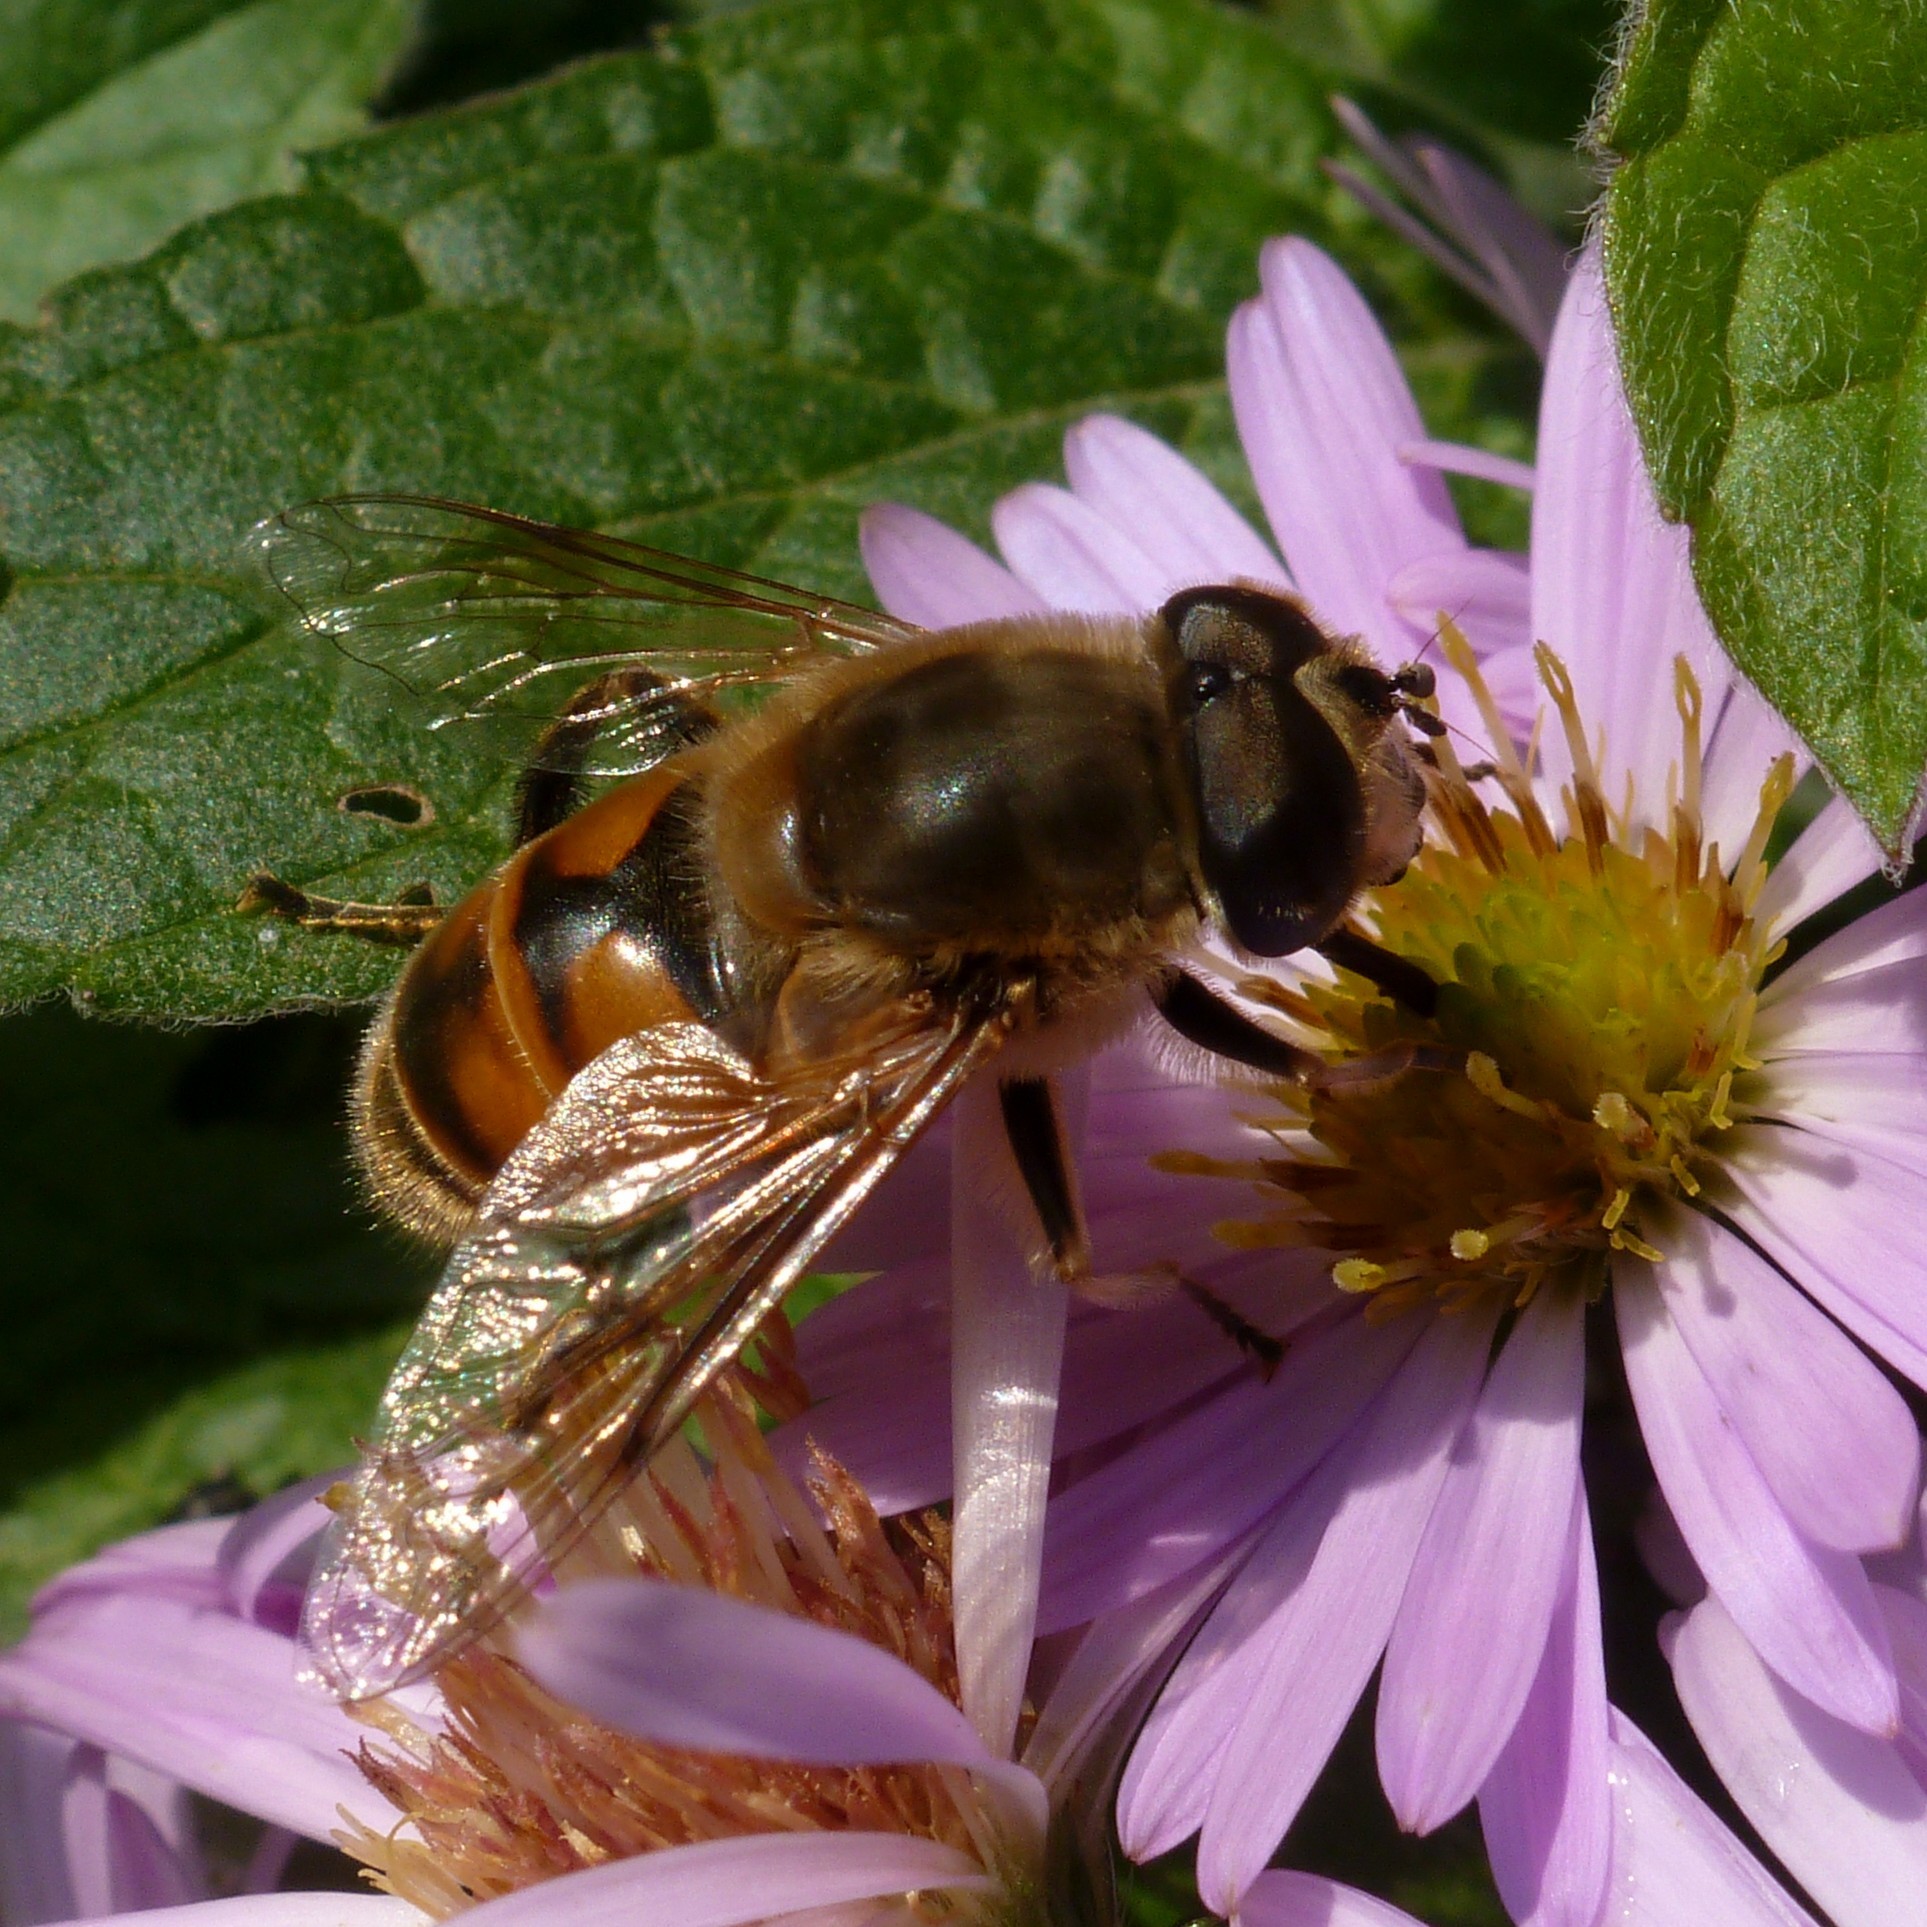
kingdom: Animalia
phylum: Arthropoda
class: Insecta
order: Diptera
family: Syrphidae
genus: Eristalis
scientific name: Eristalis tenax
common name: Drone fly
